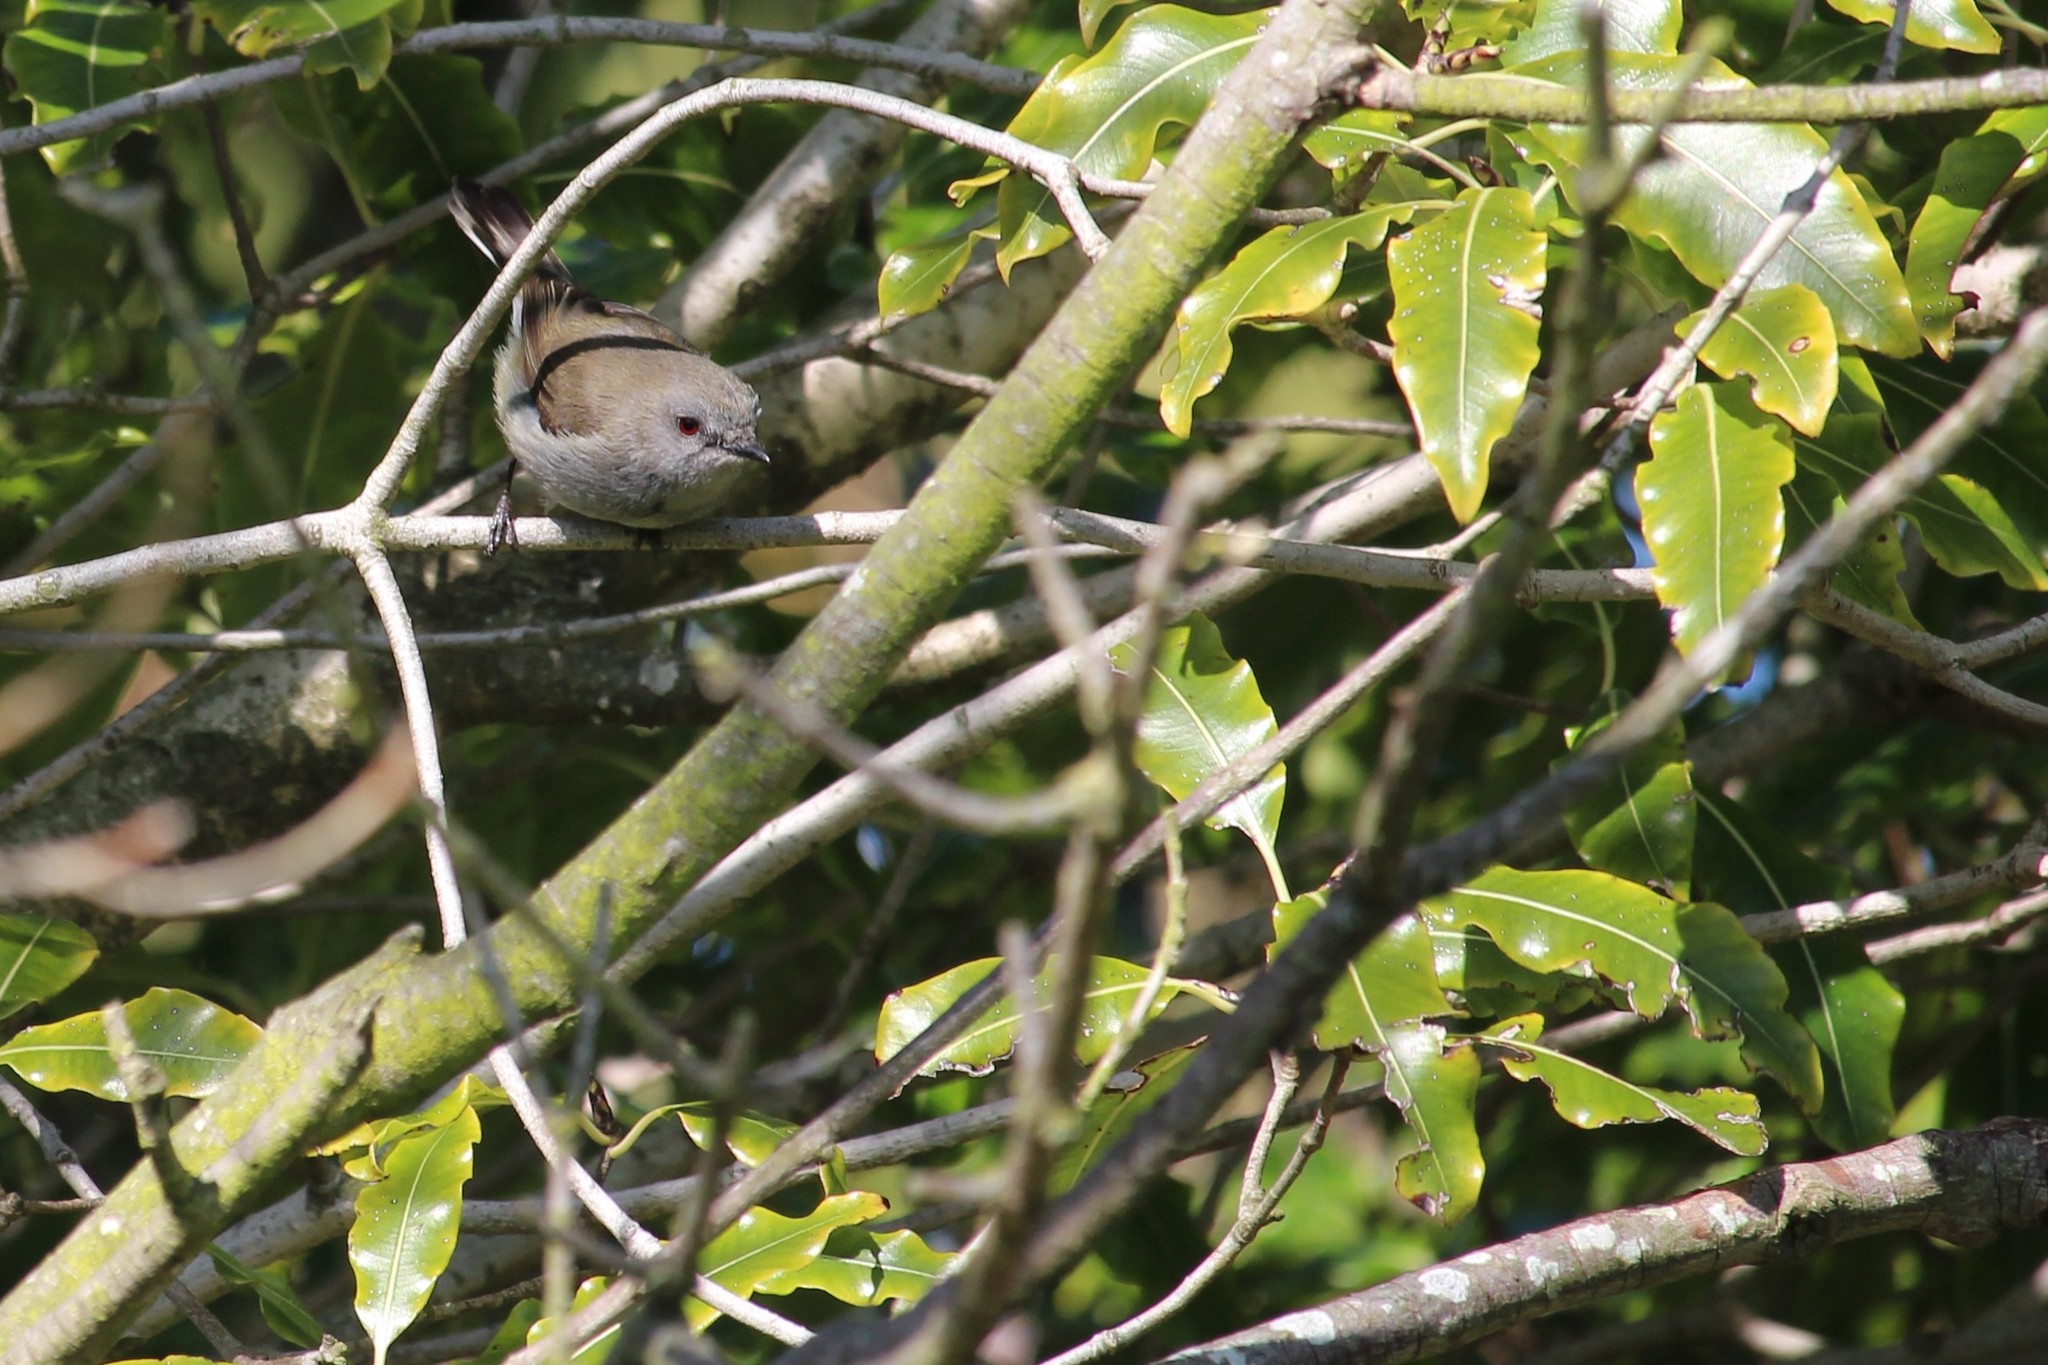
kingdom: Animalia
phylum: Chordata
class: Aves
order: Passeriformes
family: Acanthizidae
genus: Gerygone
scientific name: Gerygone igata
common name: Grey gerygone
